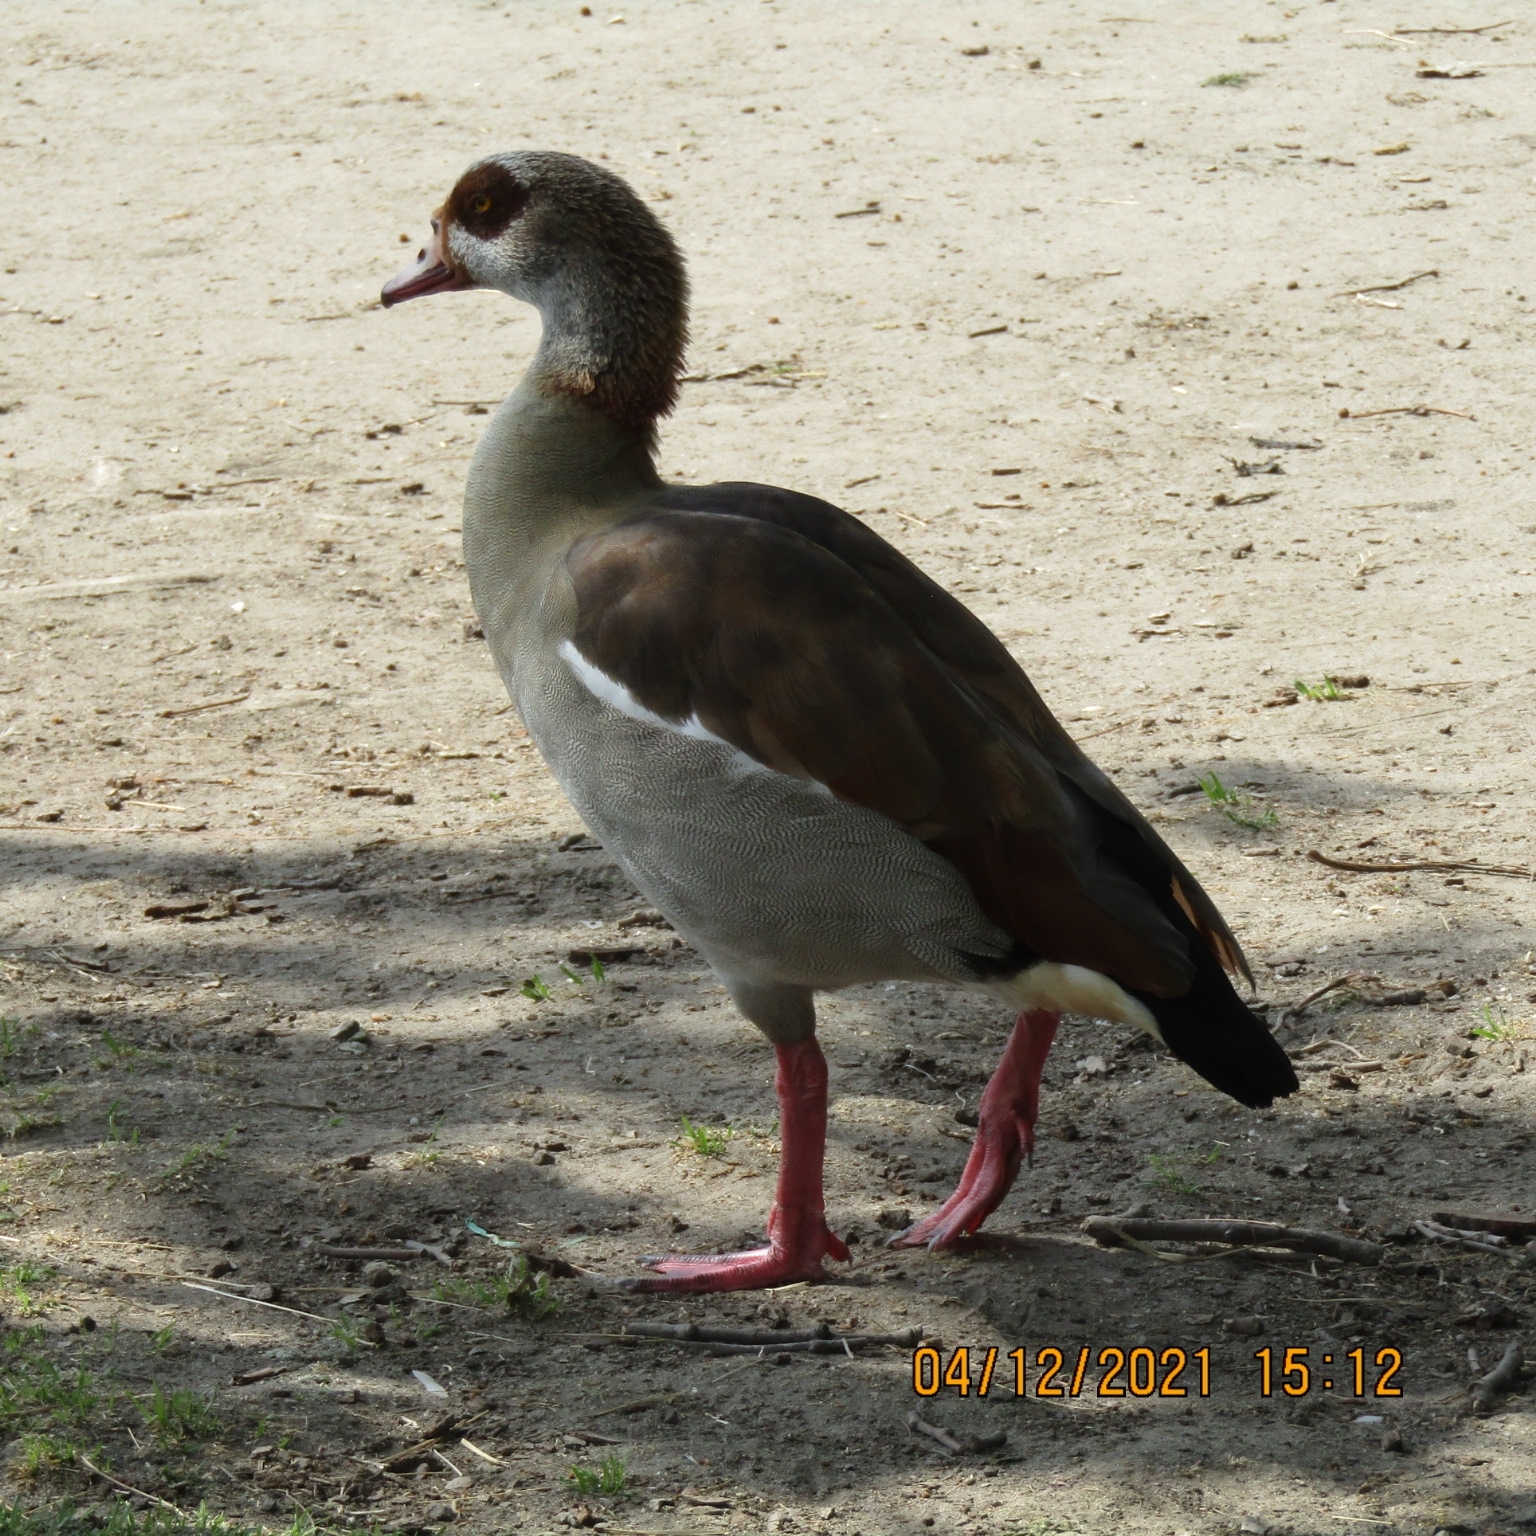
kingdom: Animalia
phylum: Chordata
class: Aves
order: Anseriformes
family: Anatidae
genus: Alopochen
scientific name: Alopochen aegyptiaca
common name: Egyptian goose
